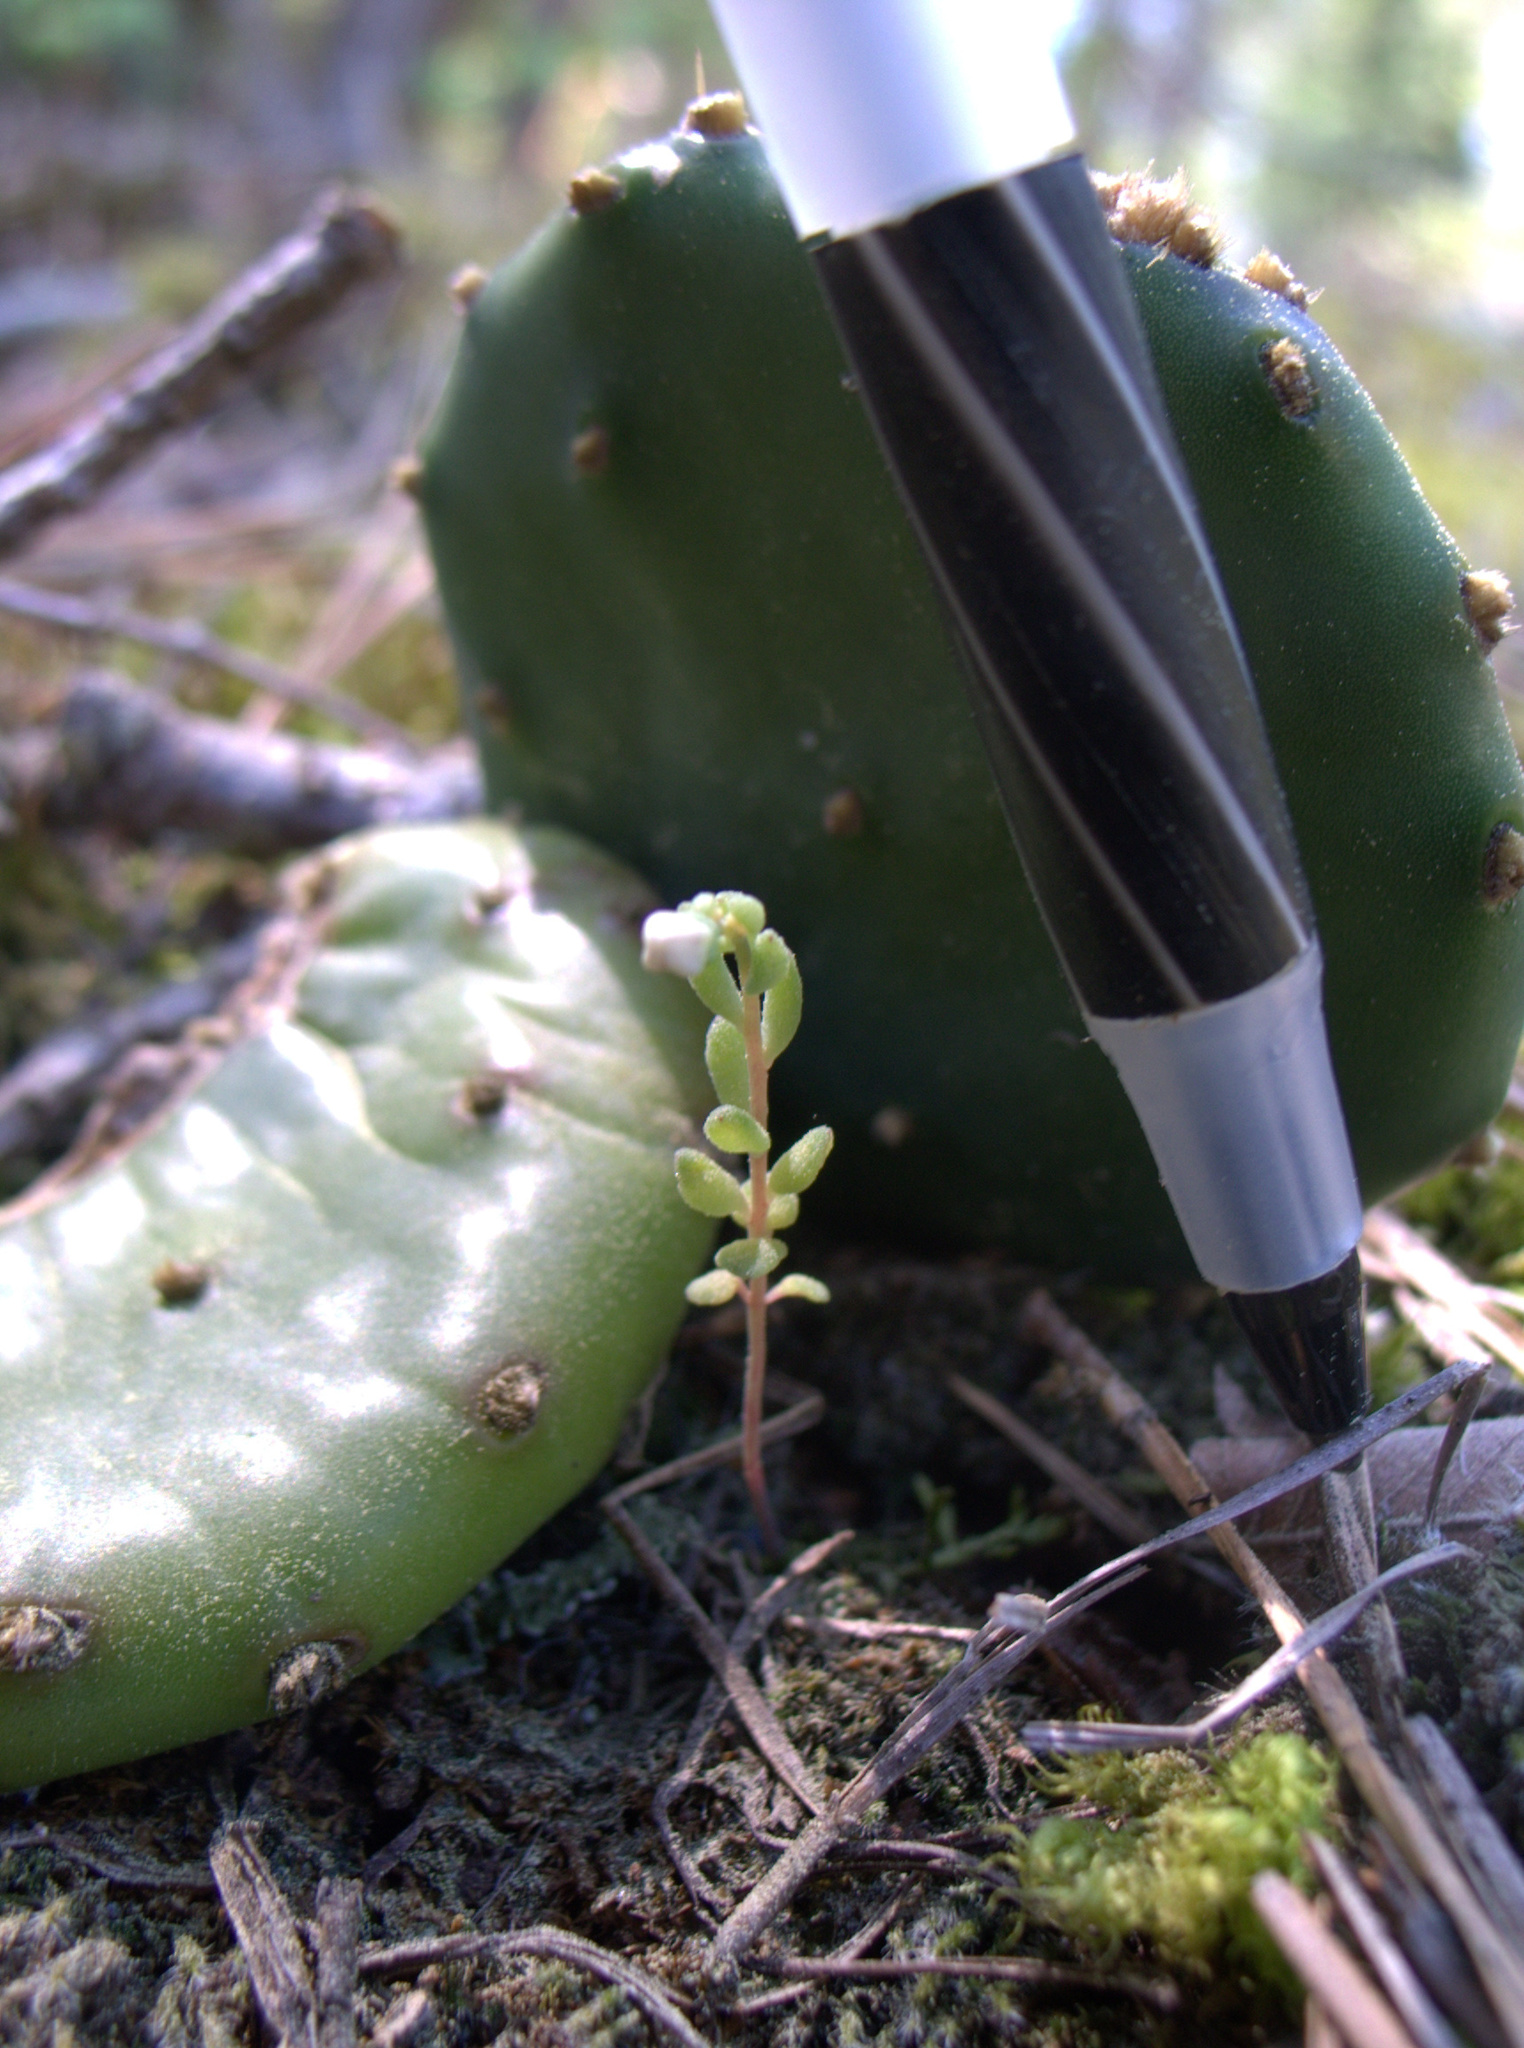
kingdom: Plantae
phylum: Tracheophyta
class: Magnoliopsida
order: Saxifragales
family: Crassulaceae
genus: Sedum
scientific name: Sedum pusillum
